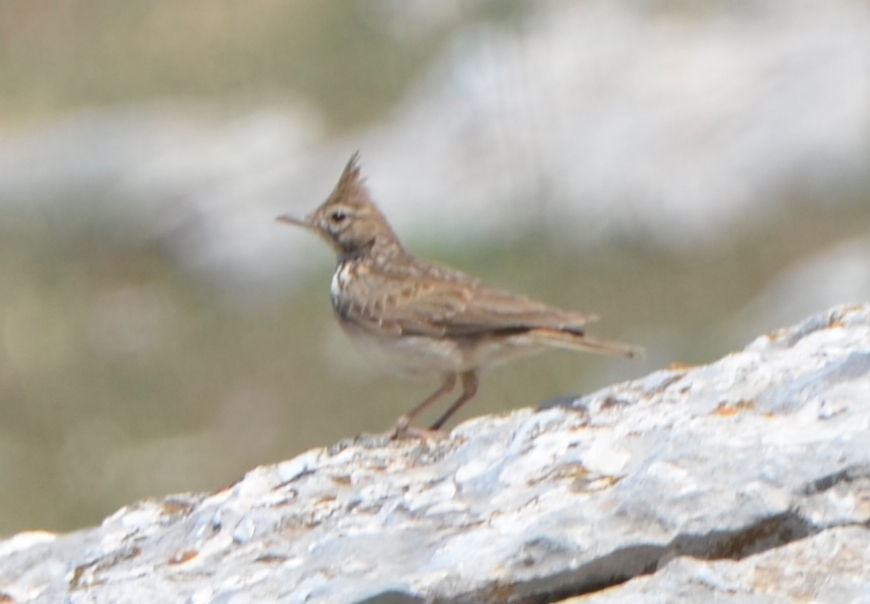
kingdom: Animalia
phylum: Chordata
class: Aves
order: Passeriformes
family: Alaudidae
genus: Galerida
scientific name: Galerida cristata
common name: Crested lark
